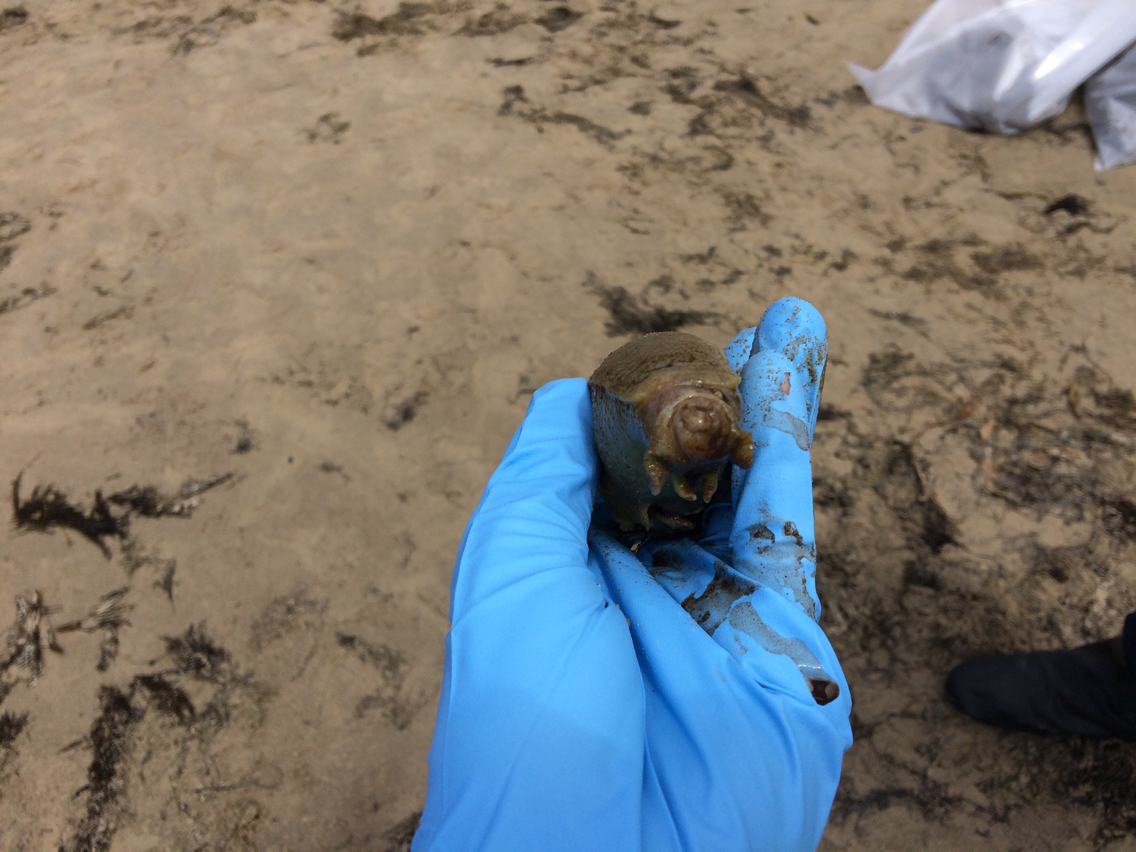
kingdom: Animalia
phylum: Mollusca
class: Gastropoda
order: Aplysiida
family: Aplysiidae
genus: Aplysia
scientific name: Aplysia californica
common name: California seahare
